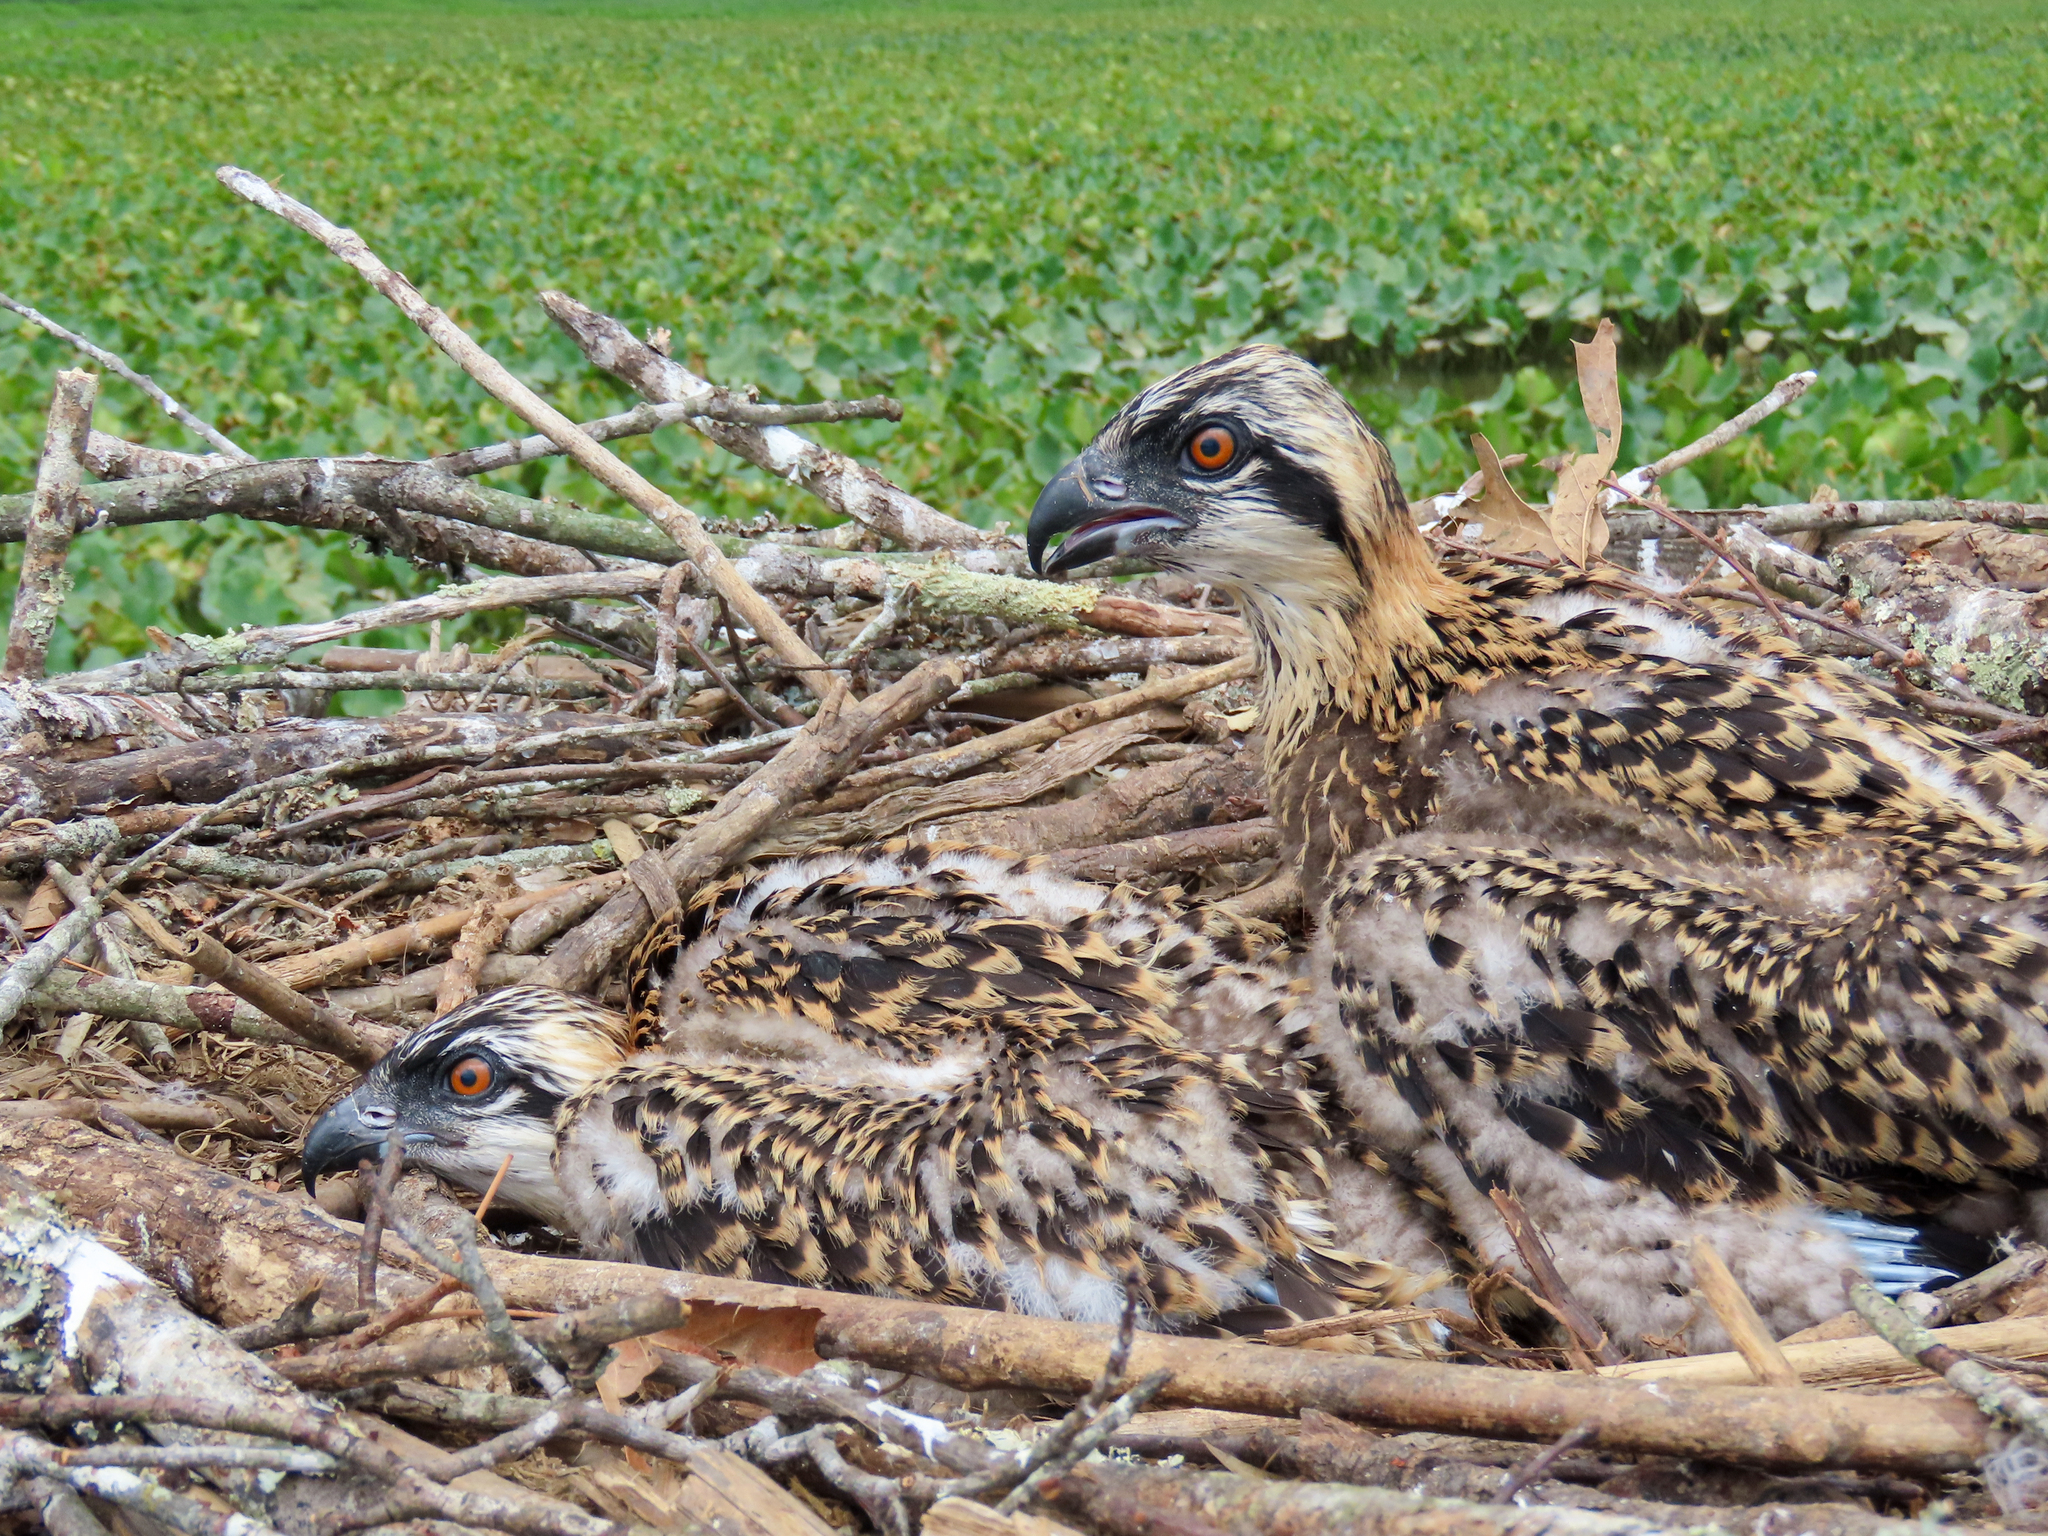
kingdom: Animalia
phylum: Chordata
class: Aves
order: Accipitriformes
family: Pandionidae
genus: Pandion
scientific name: Pandion haliaetus
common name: Osprey
